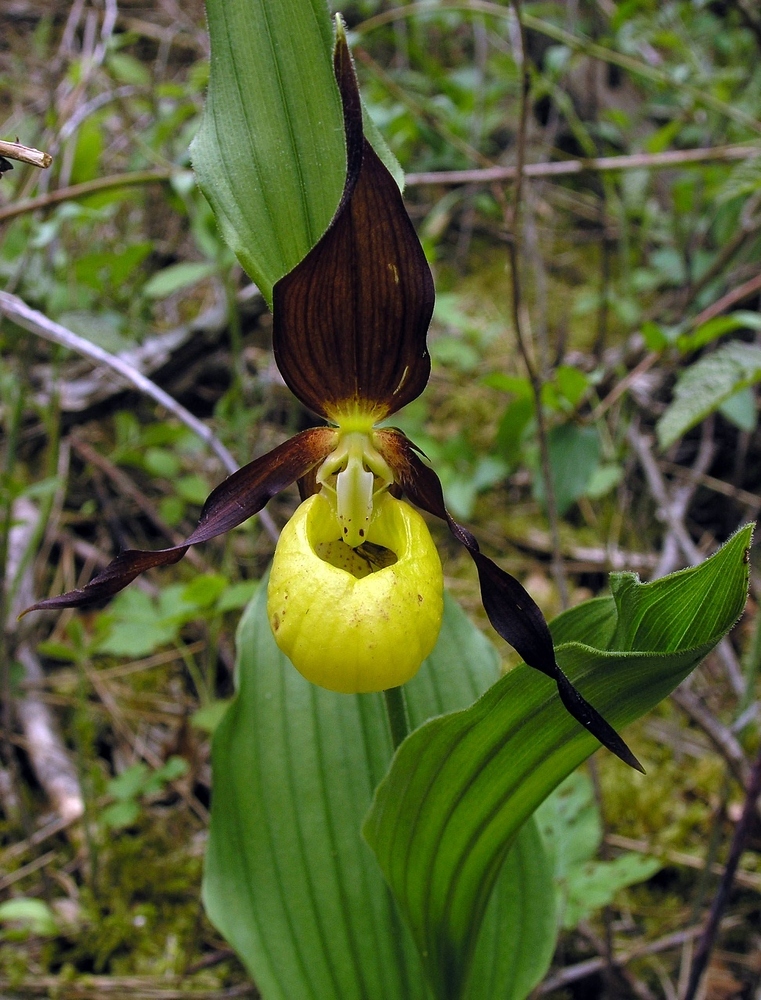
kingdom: Plantae
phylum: Tracheophyta
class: Liliopsida
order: Asparagales
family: Orchidaceae
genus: Cypripedium
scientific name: Cypripedium calceolus
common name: Lady's-slipper
